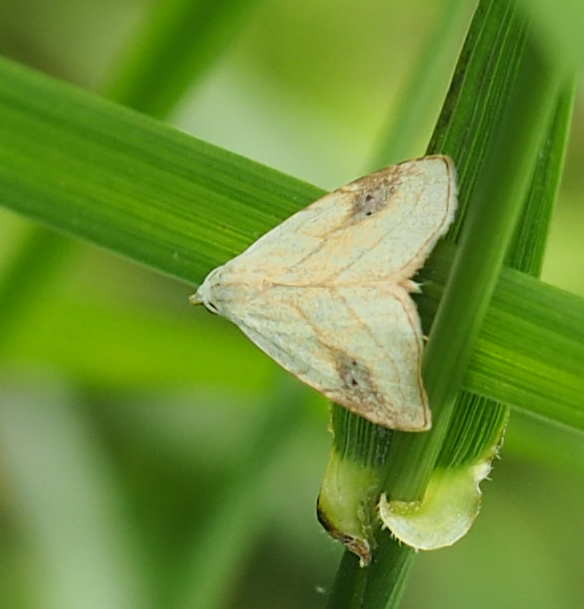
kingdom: Animalia
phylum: Arthropoda
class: Insecta
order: Lepidoptera
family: Erebidae
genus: Rivula
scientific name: Rivula propinqualis
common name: Spotted grass moth
